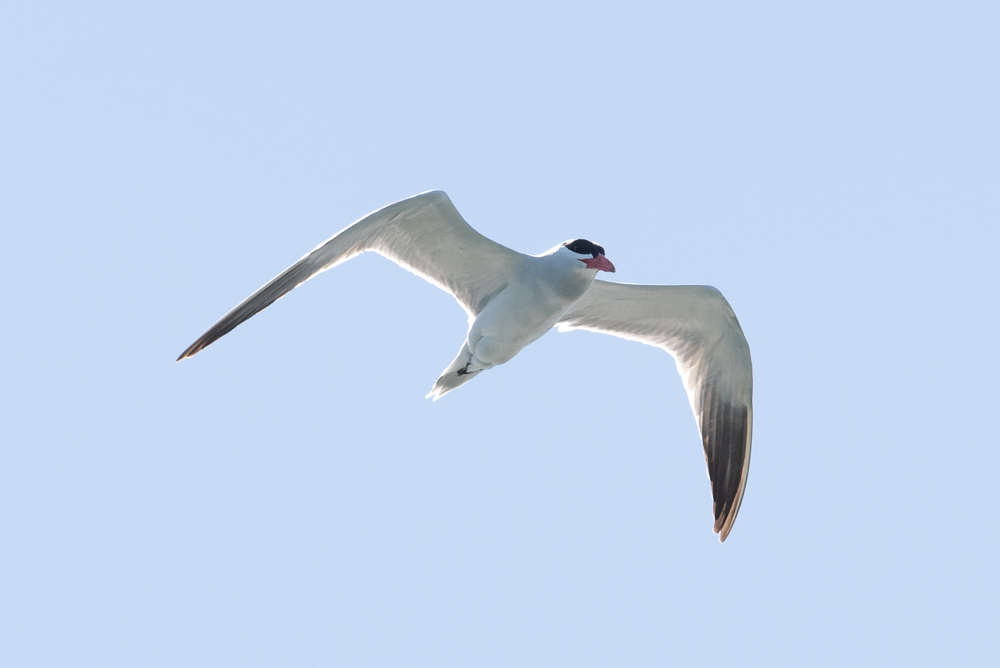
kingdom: Animalia
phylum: Chordata
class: Aves
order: Charadriiformes
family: Laridae
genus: Hydroprogne
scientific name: Hydroprogne caspia
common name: Caspian tern
